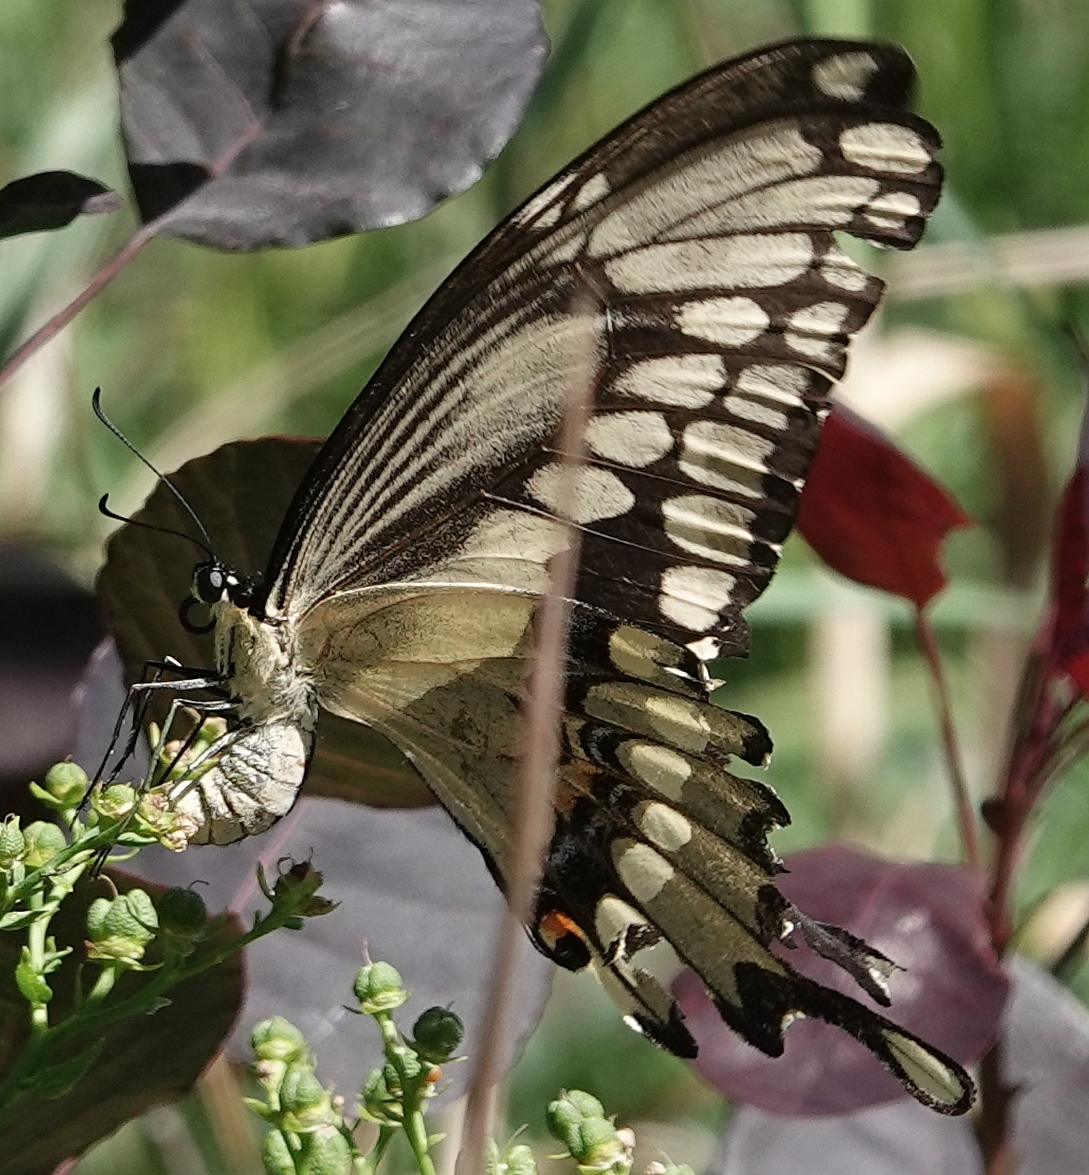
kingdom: Animalia
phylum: Arthropoda
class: Insecta
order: Lepidoptera
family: Papilionidae
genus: Papilio
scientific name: Papilio cresphontes
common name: Giant swallowtail
